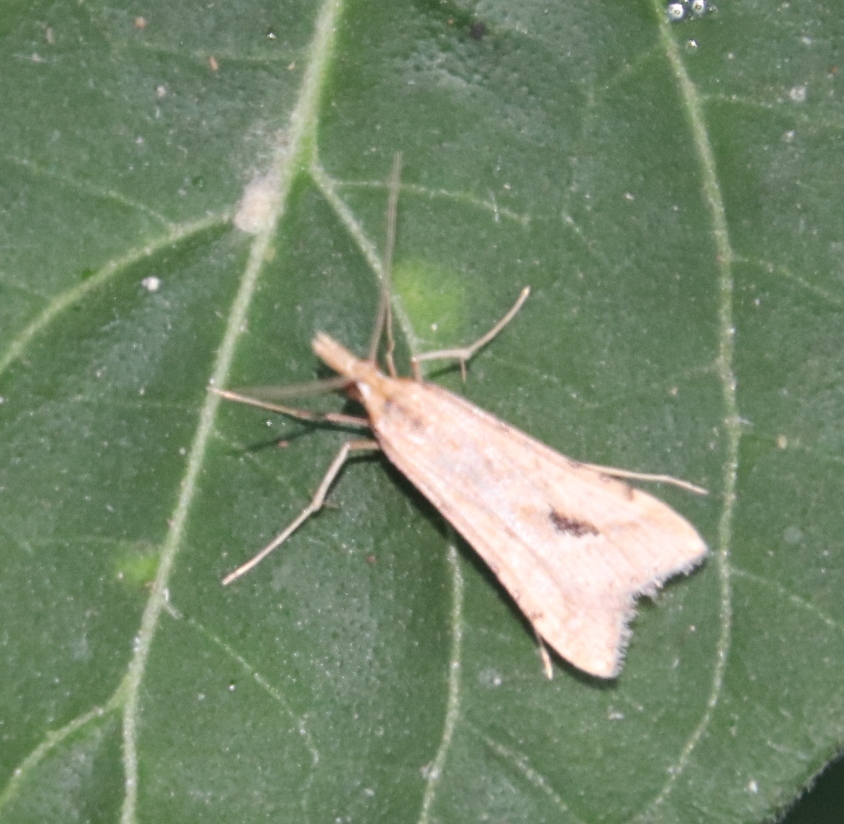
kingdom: Animalia
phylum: Arthropoda
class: Insecta
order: Lepidoptera
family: Crambidae
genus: Diasemia
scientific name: Diasemia monostigma
